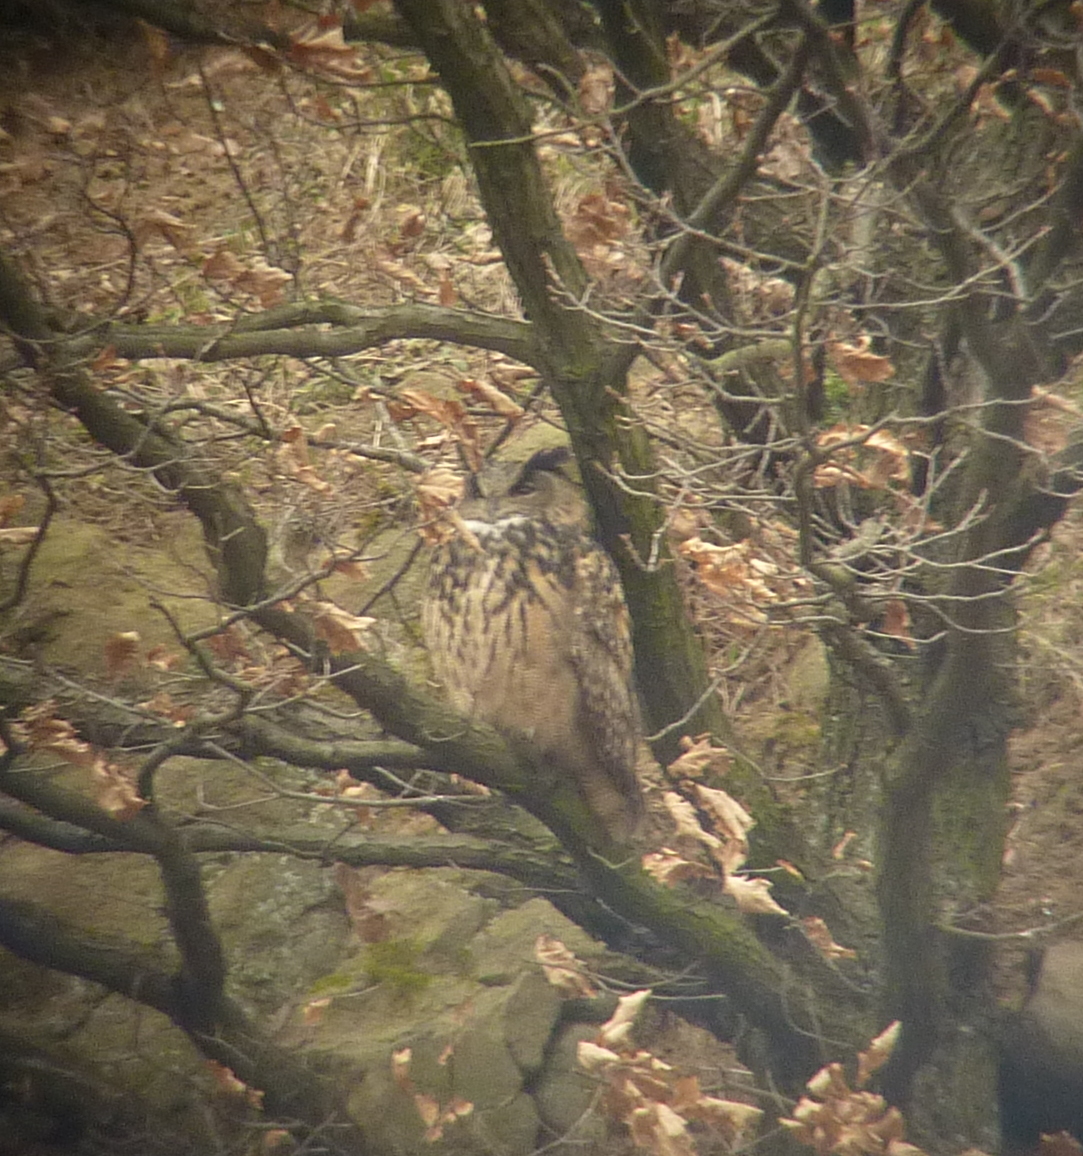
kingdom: Animalia
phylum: Chordata
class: Aves
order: Strigiformes
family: Strigidae
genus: Bubo
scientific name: Bubo bubo
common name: Eurasian eagle-owl
